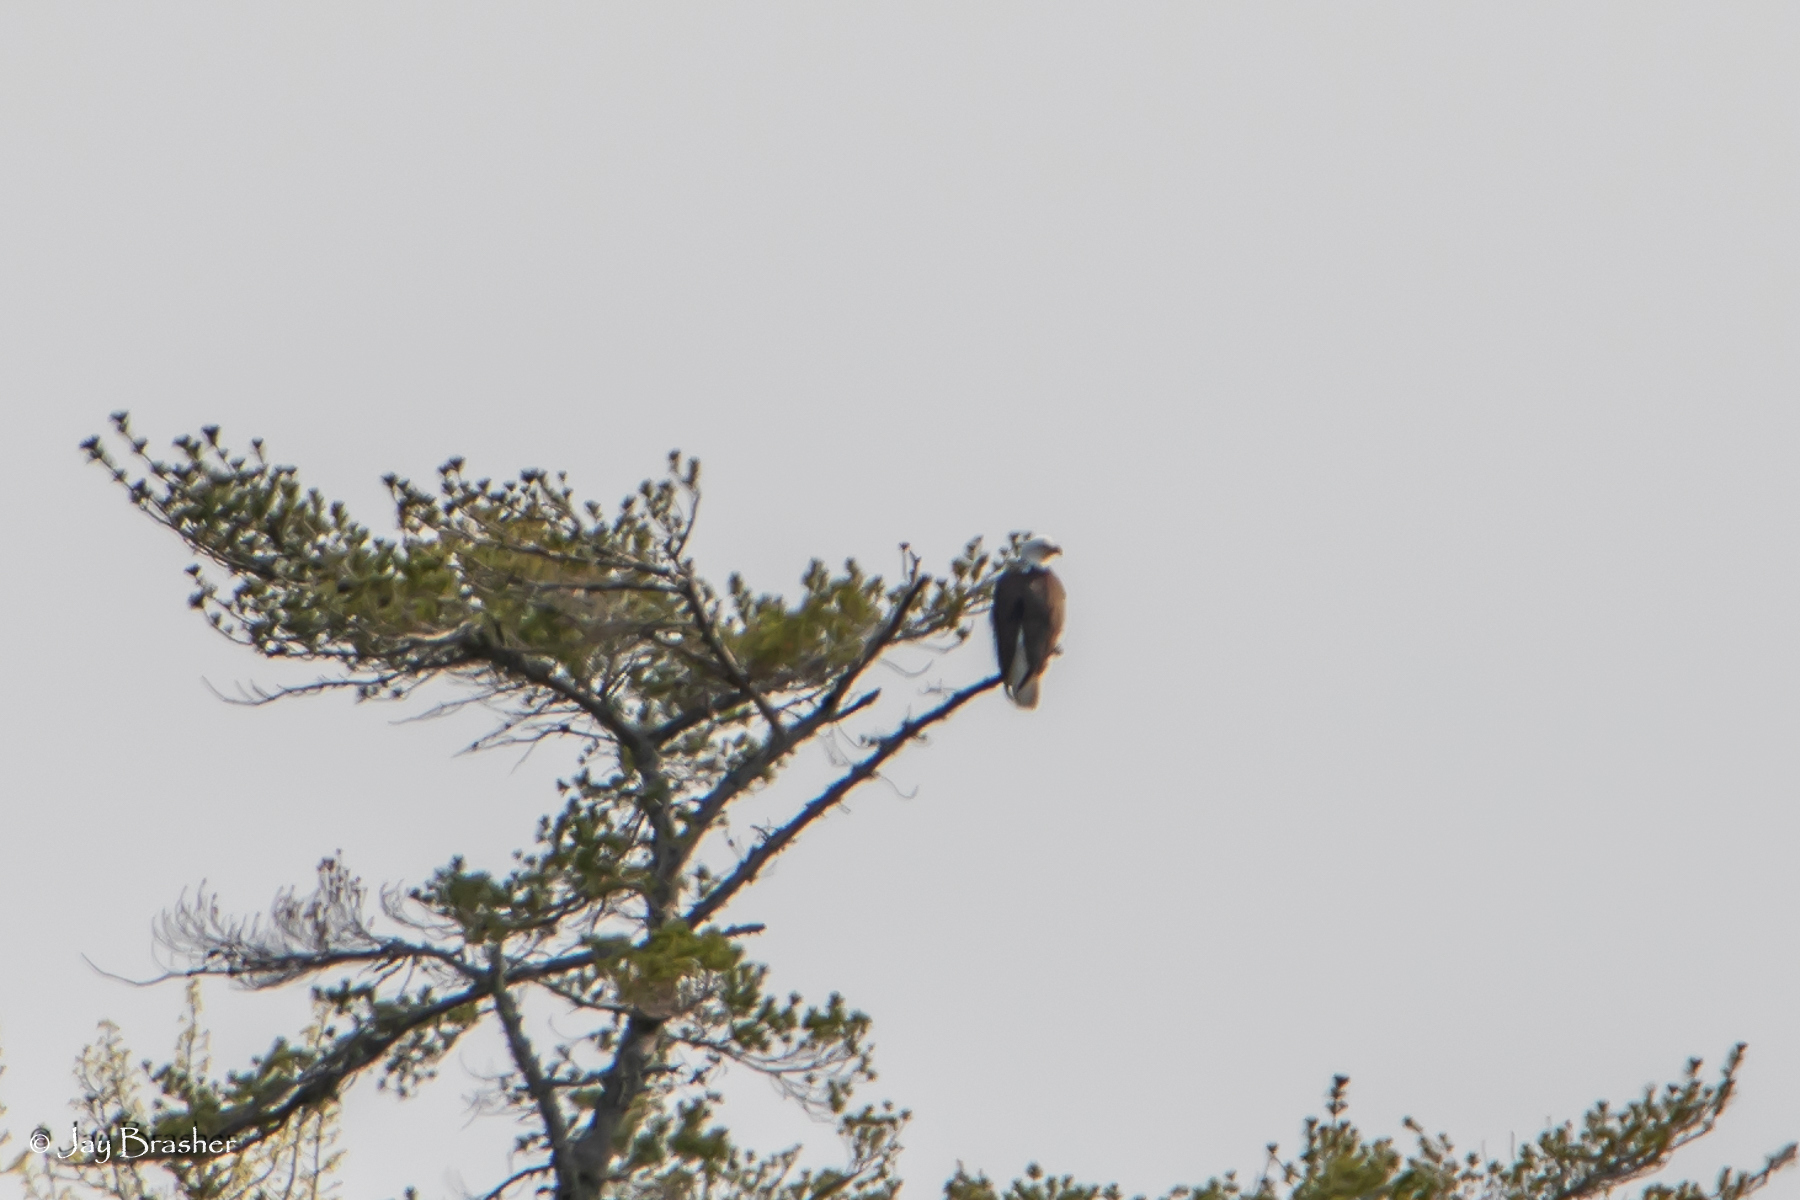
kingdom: Animalia
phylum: Chordata
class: Aves
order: Accipitriformes
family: Accipitridae
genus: Haliaeetus
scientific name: Haliaeetus leucocephalus
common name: Bald eagle
